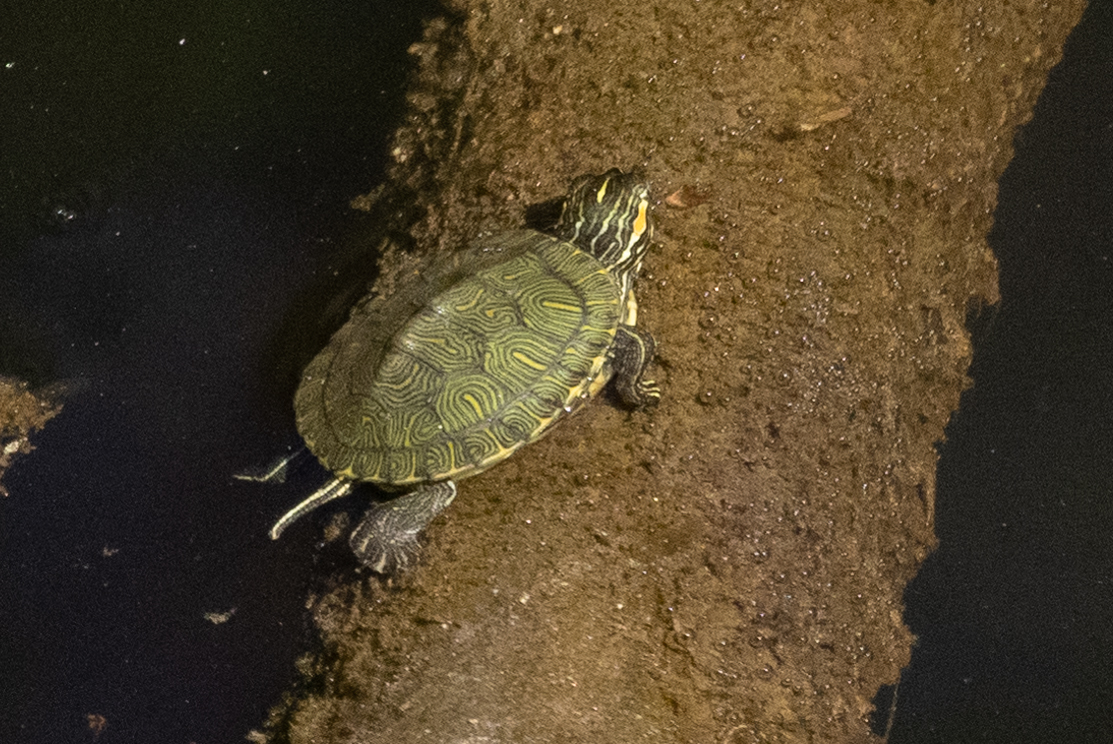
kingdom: Animalia
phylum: Chordata
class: Testudines
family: Emydidae
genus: Trachemys
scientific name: Trachemys scripta
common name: Slider
